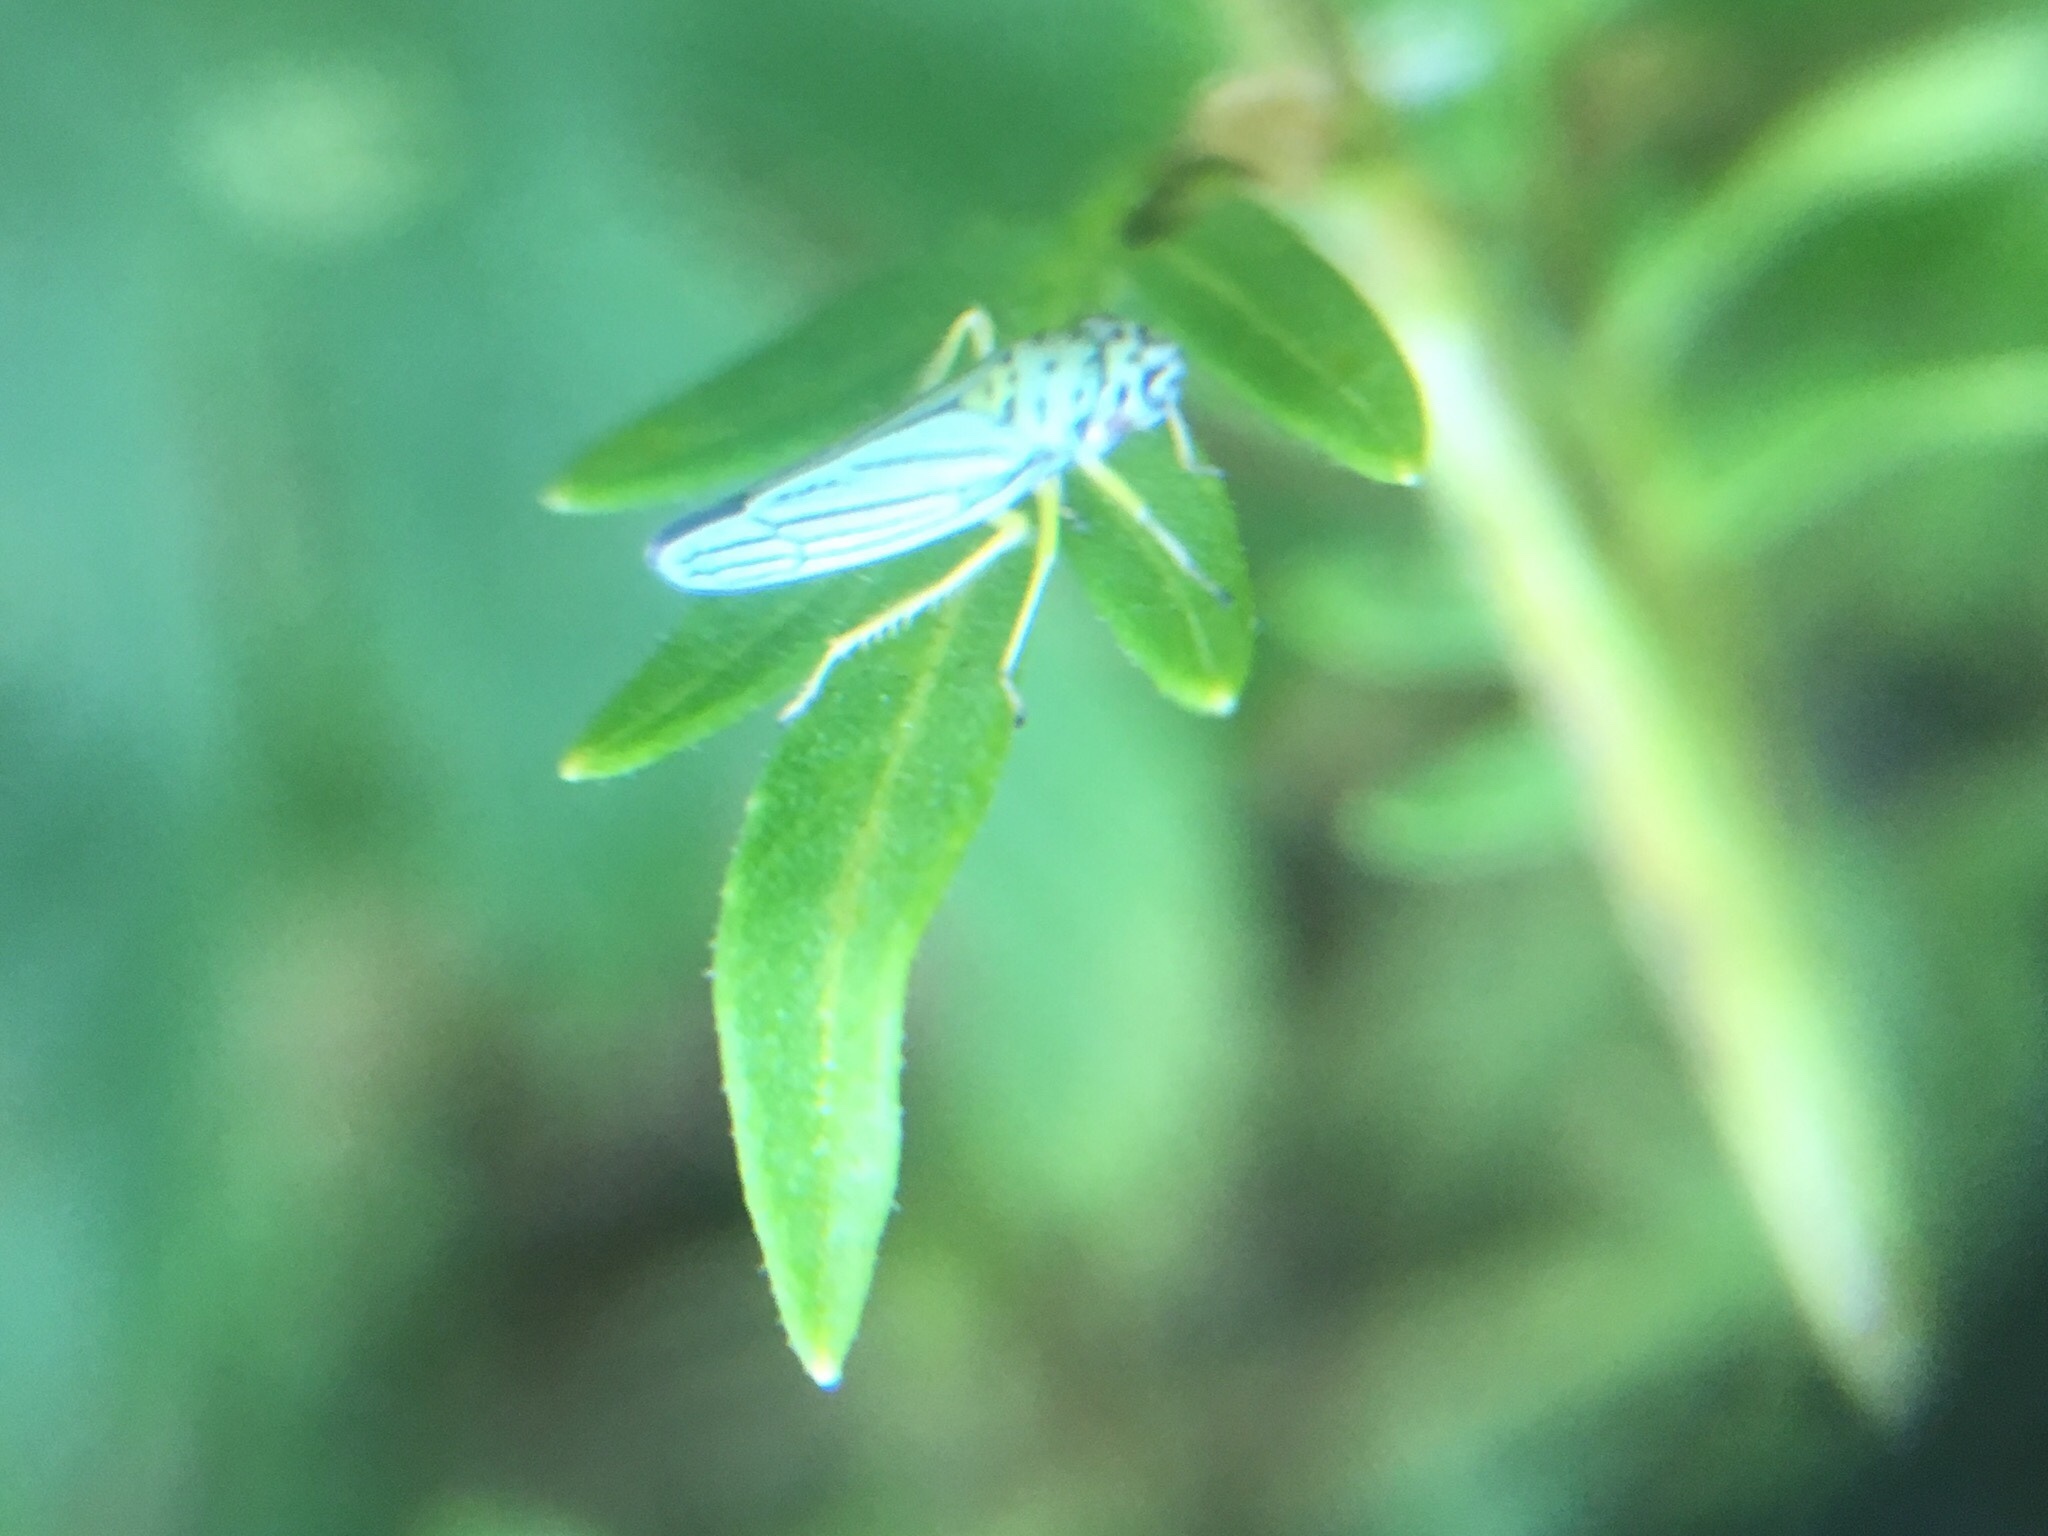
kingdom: Animalia
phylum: Arthropoda
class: Insecta
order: Hemiptera
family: Cicadellidae
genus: Graphocephala
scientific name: Graphocephala atropunctata
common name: Blue-green sharpshooter
